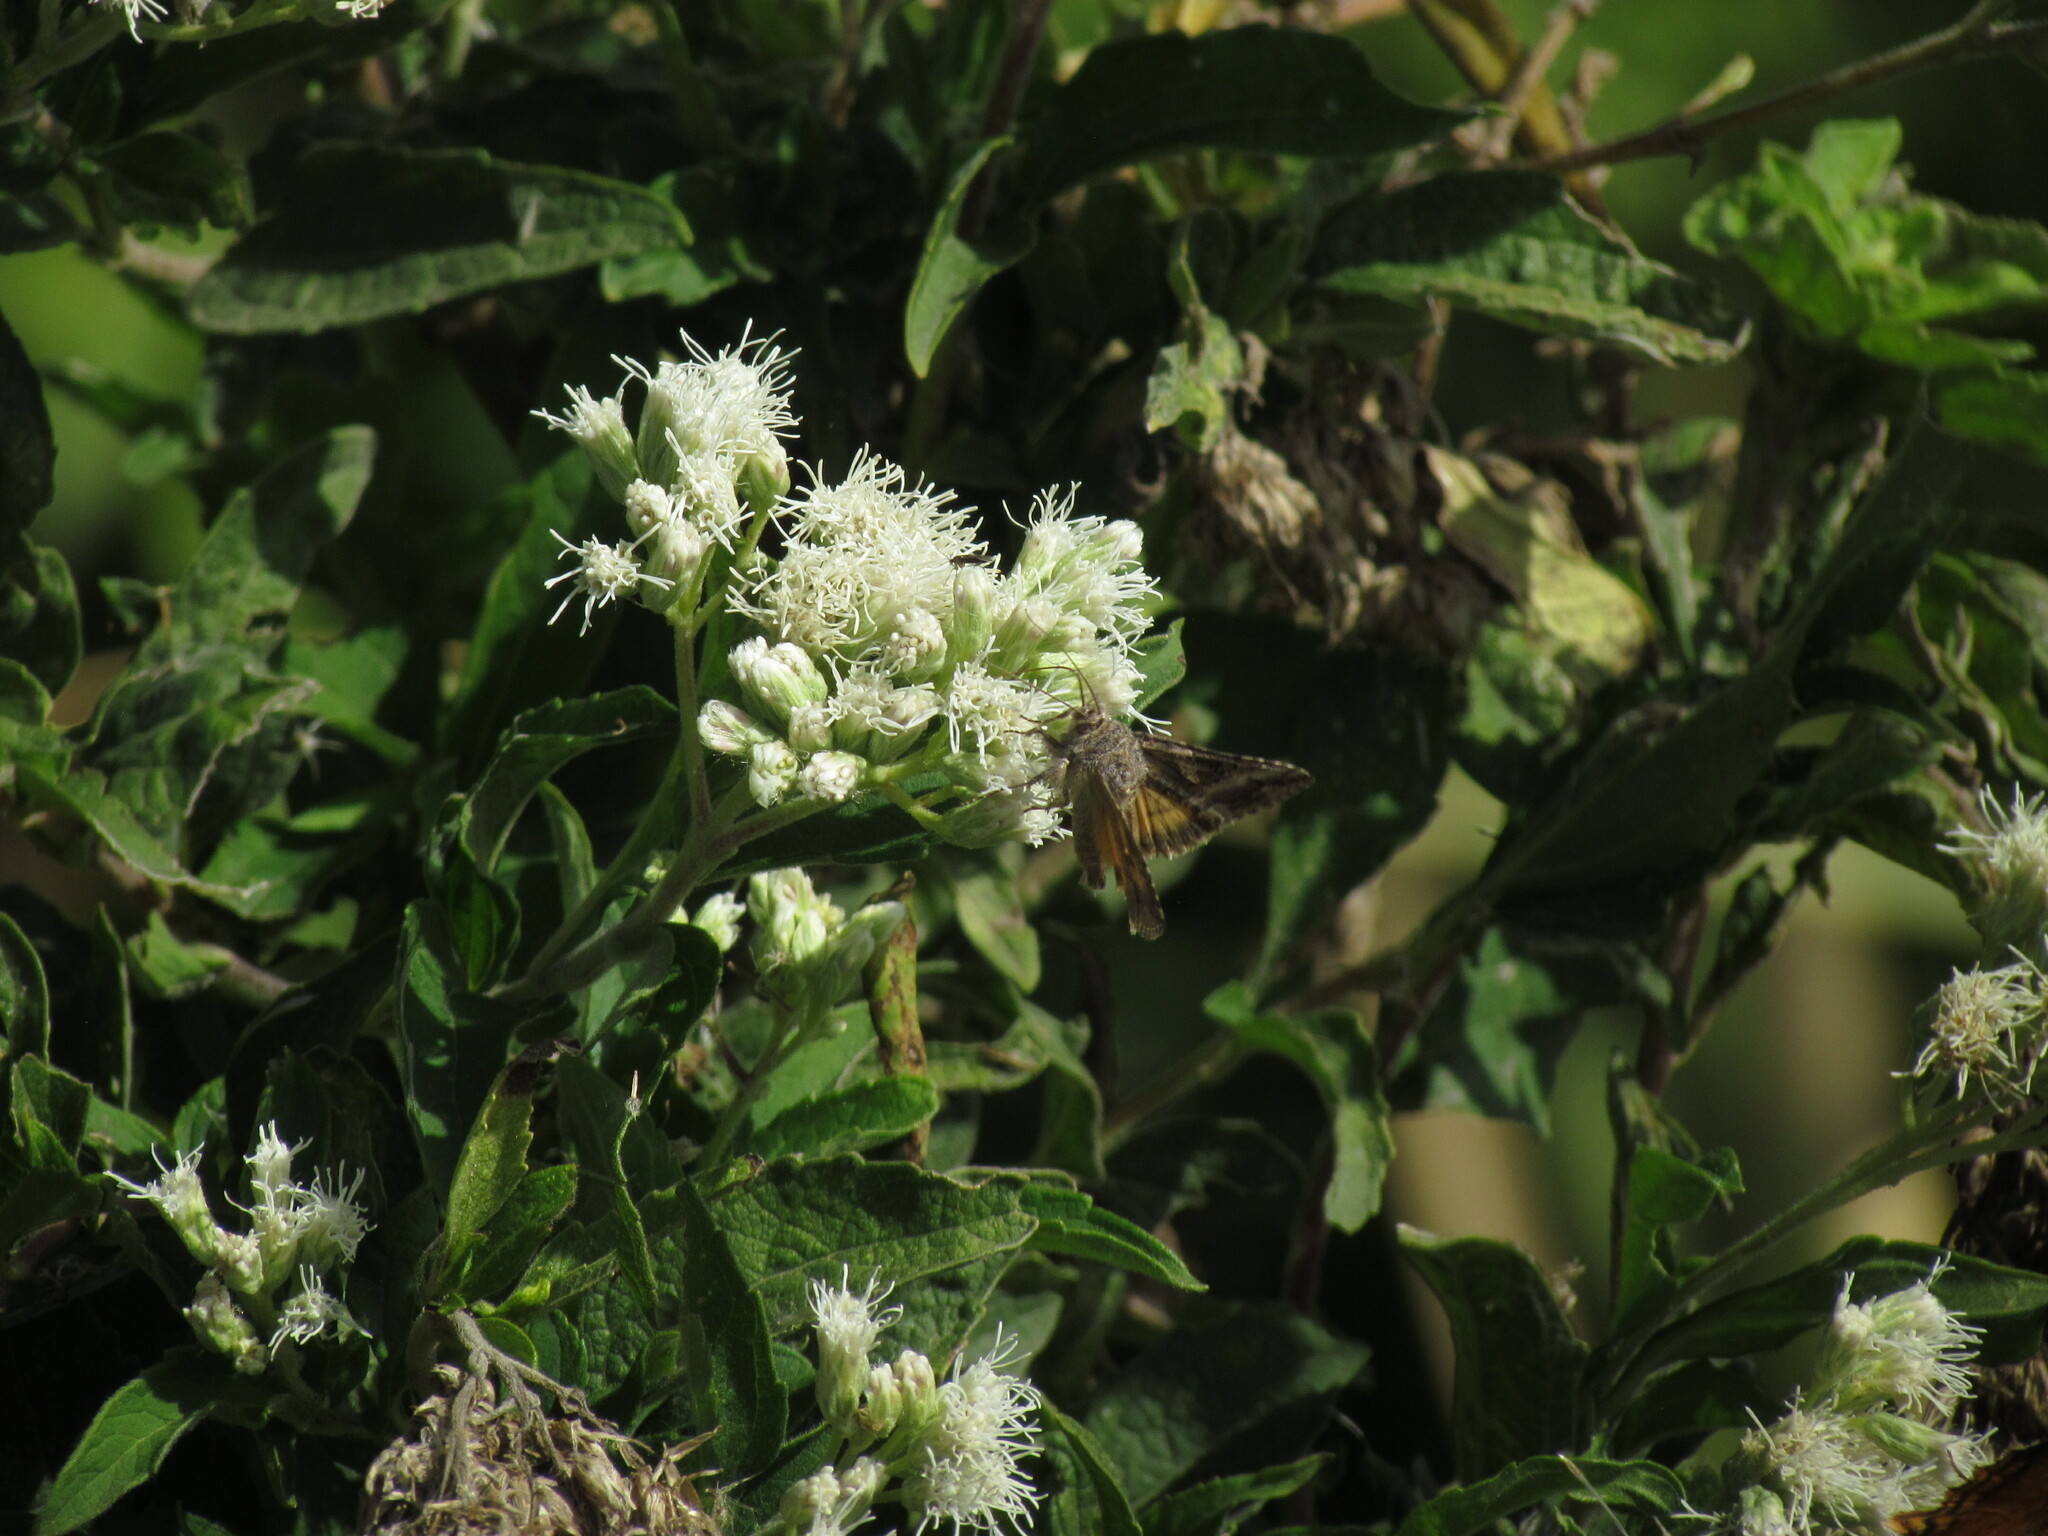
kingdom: Animalia
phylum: Arthropoda
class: Insecta
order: Lepidoptera
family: Noctuidae
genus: Rachiplusia
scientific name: Rachiplusia nu
